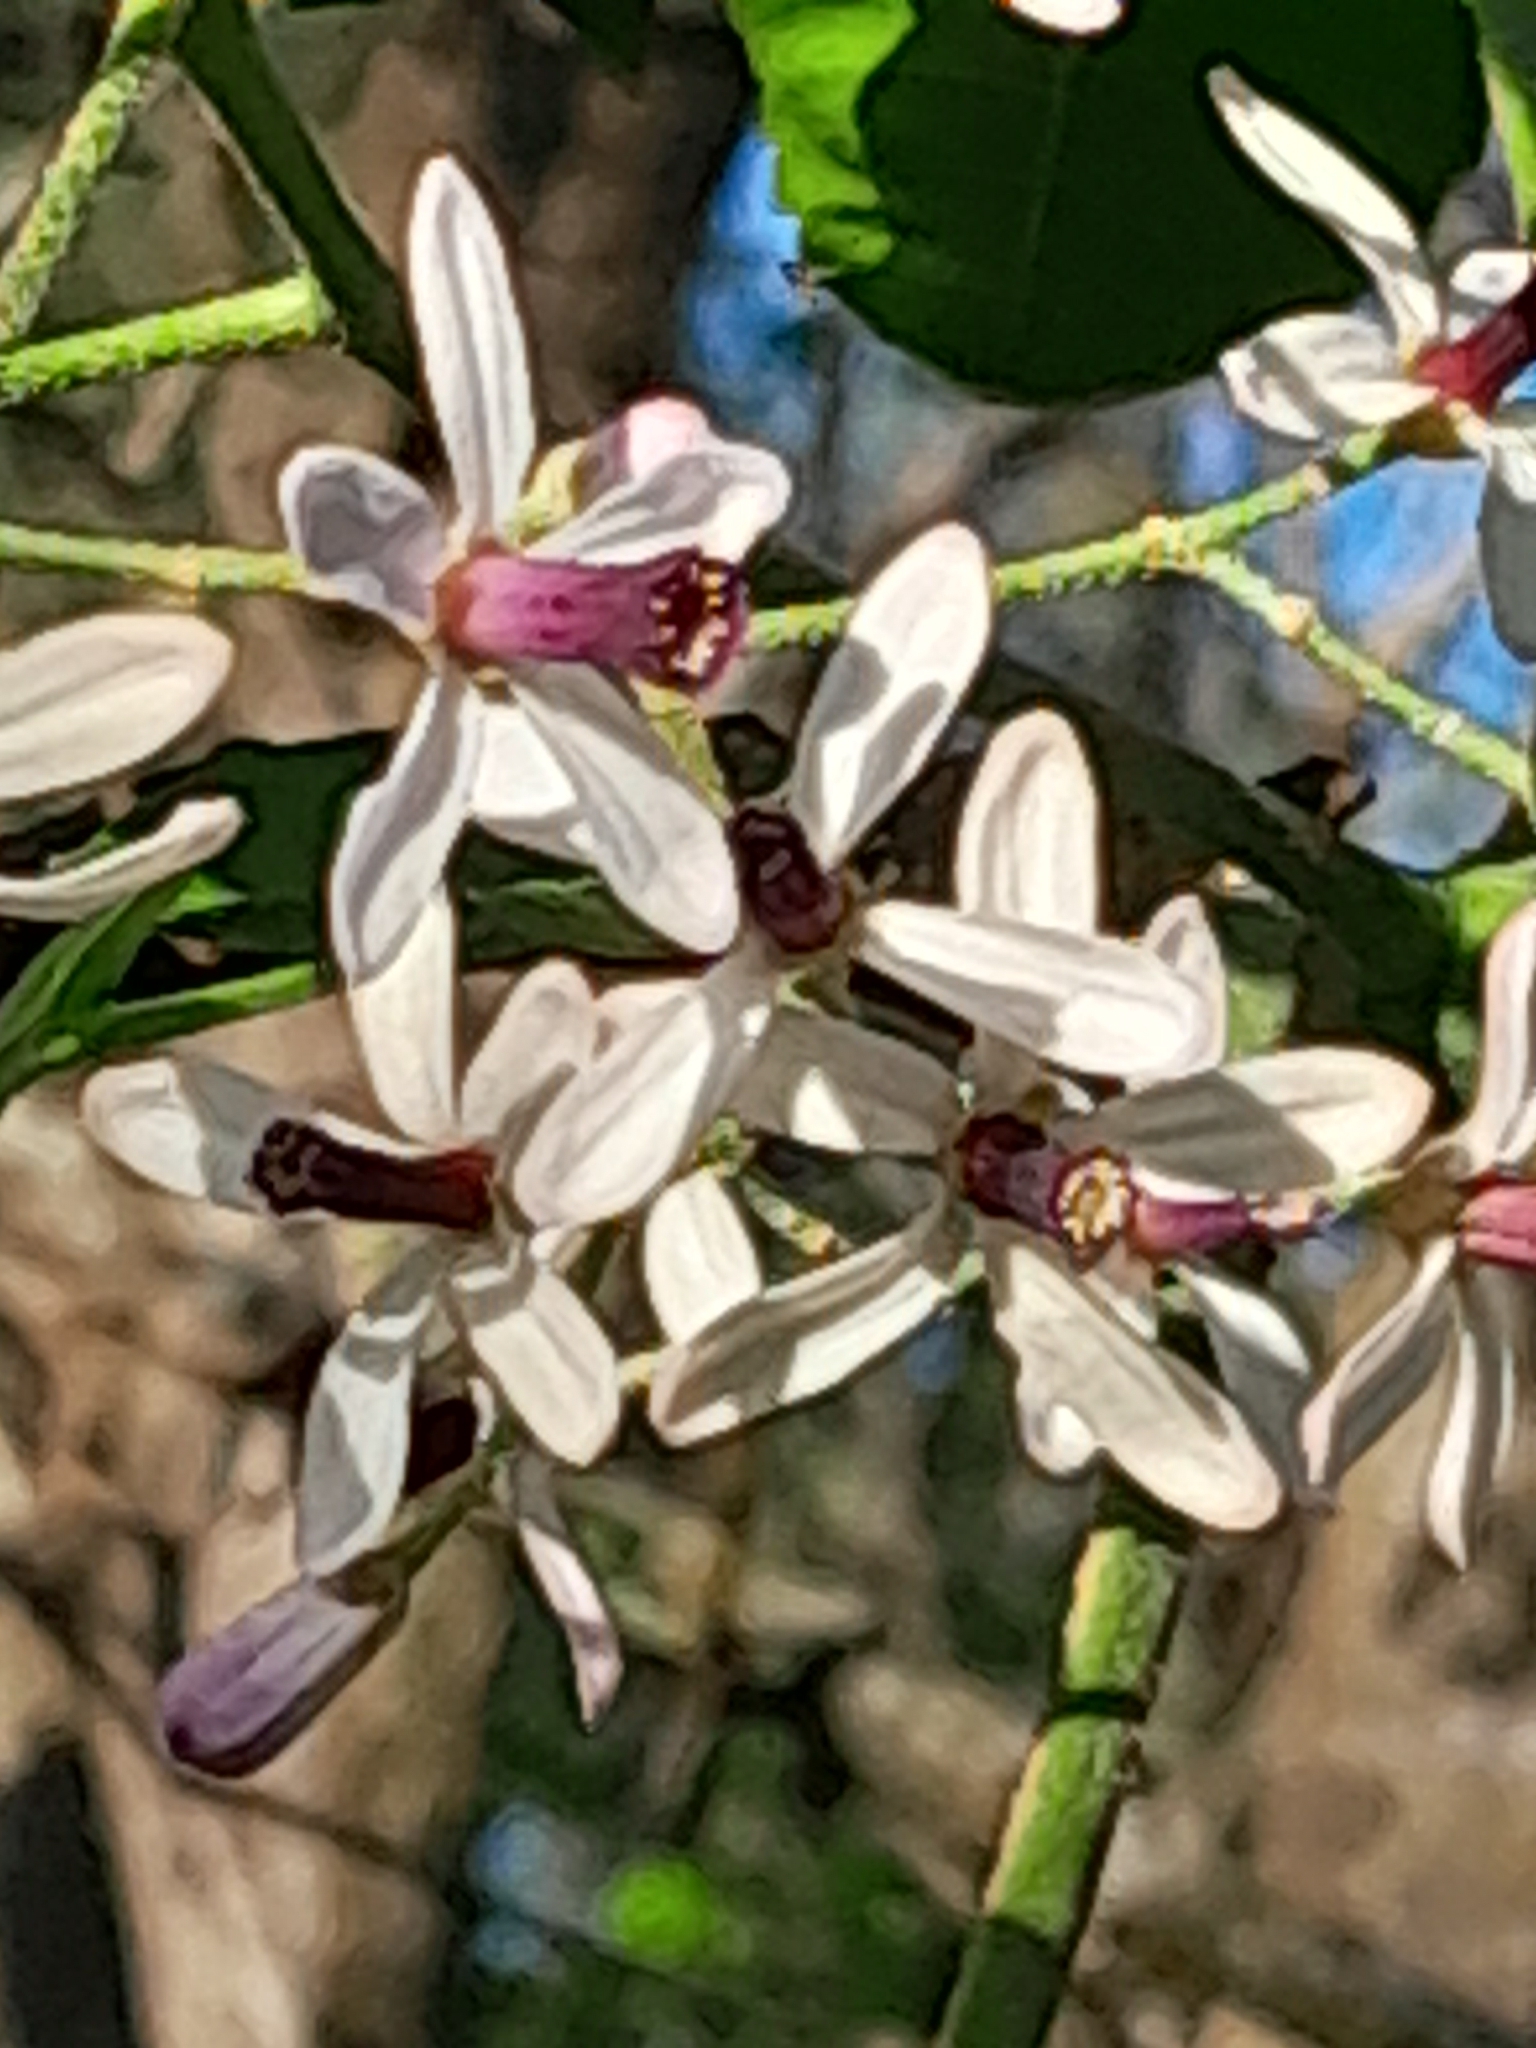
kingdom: Plantae
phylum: Tracheophyta
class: Magnoliopsida
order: Sapindales
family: Meliaceae
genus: Melia
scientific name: Melia azedarach
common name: Chinaberrytree
